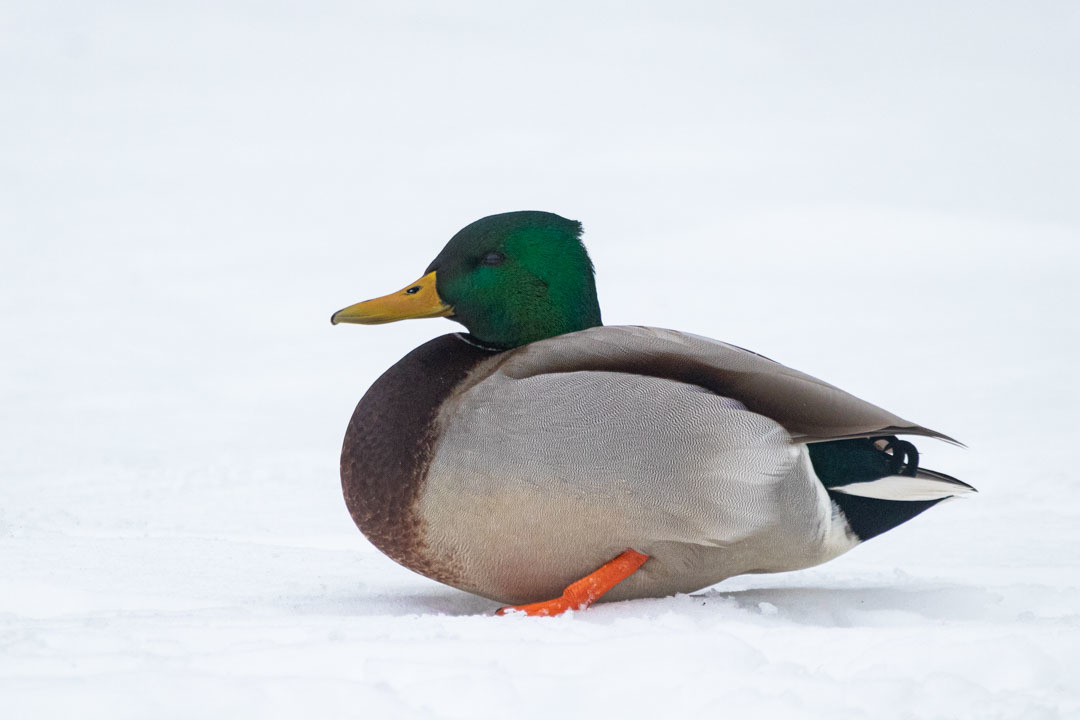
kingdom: Animalia
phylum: Chordata
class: Aves
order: Anseriformes
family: Anatidae
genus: Anas
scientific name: Anas platyrhynchos
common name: Mallard
